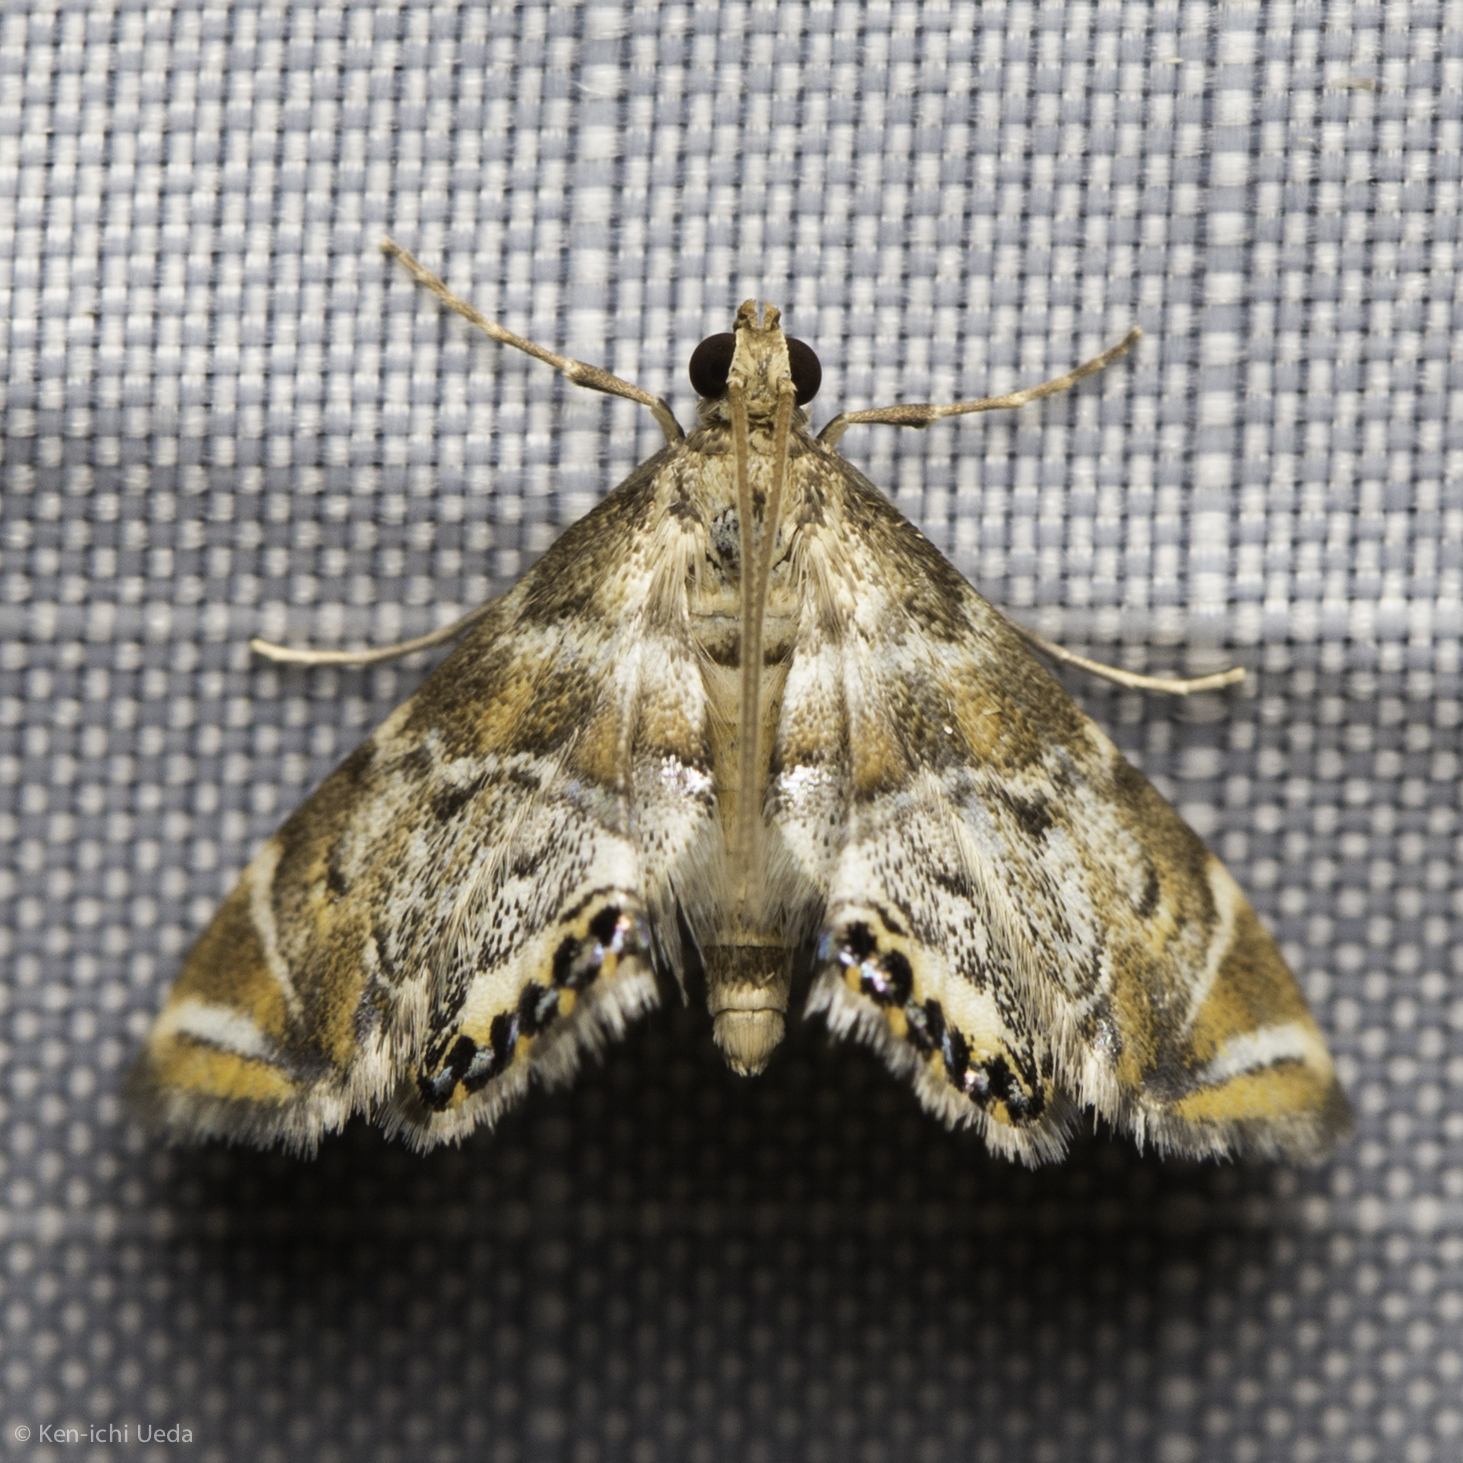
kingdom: Animalia
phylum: Arthropoda
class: Insecta
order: Lepidoptera
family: Crambidae
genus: Petrophila
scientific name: Petrophila confusalis
